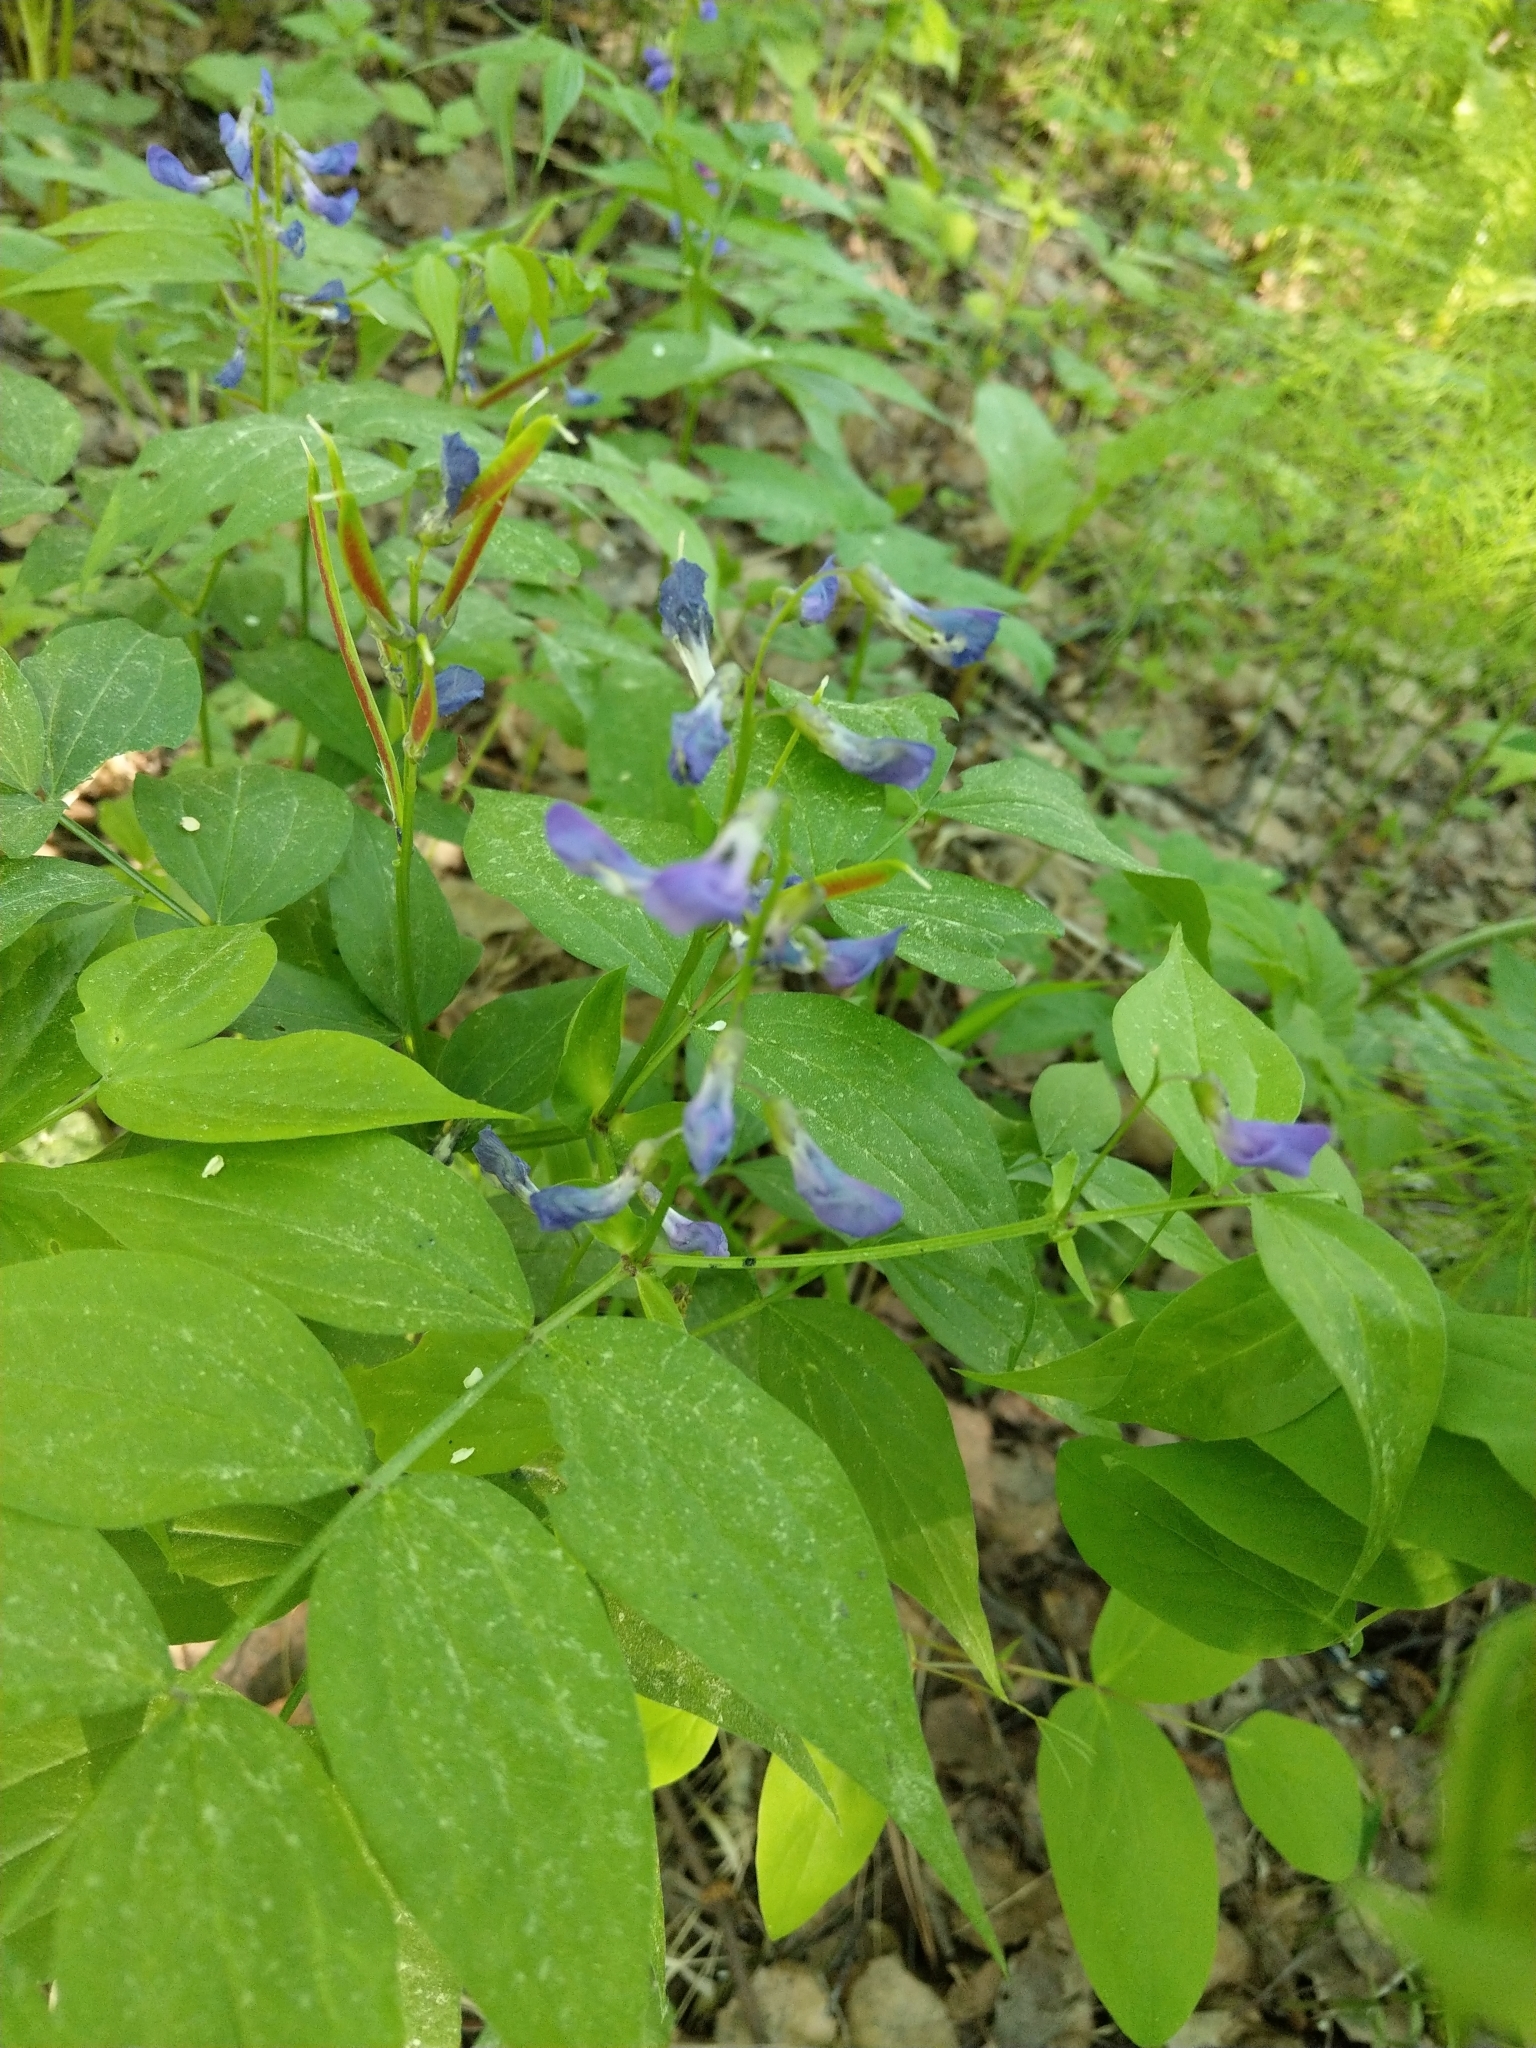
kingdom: Plantae
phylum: Tracheophyta
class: Magnoliopsida
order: Fabales
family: Fabaceae
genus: Lathyrus
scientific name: Lathyrus vernus
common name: Spring pea
